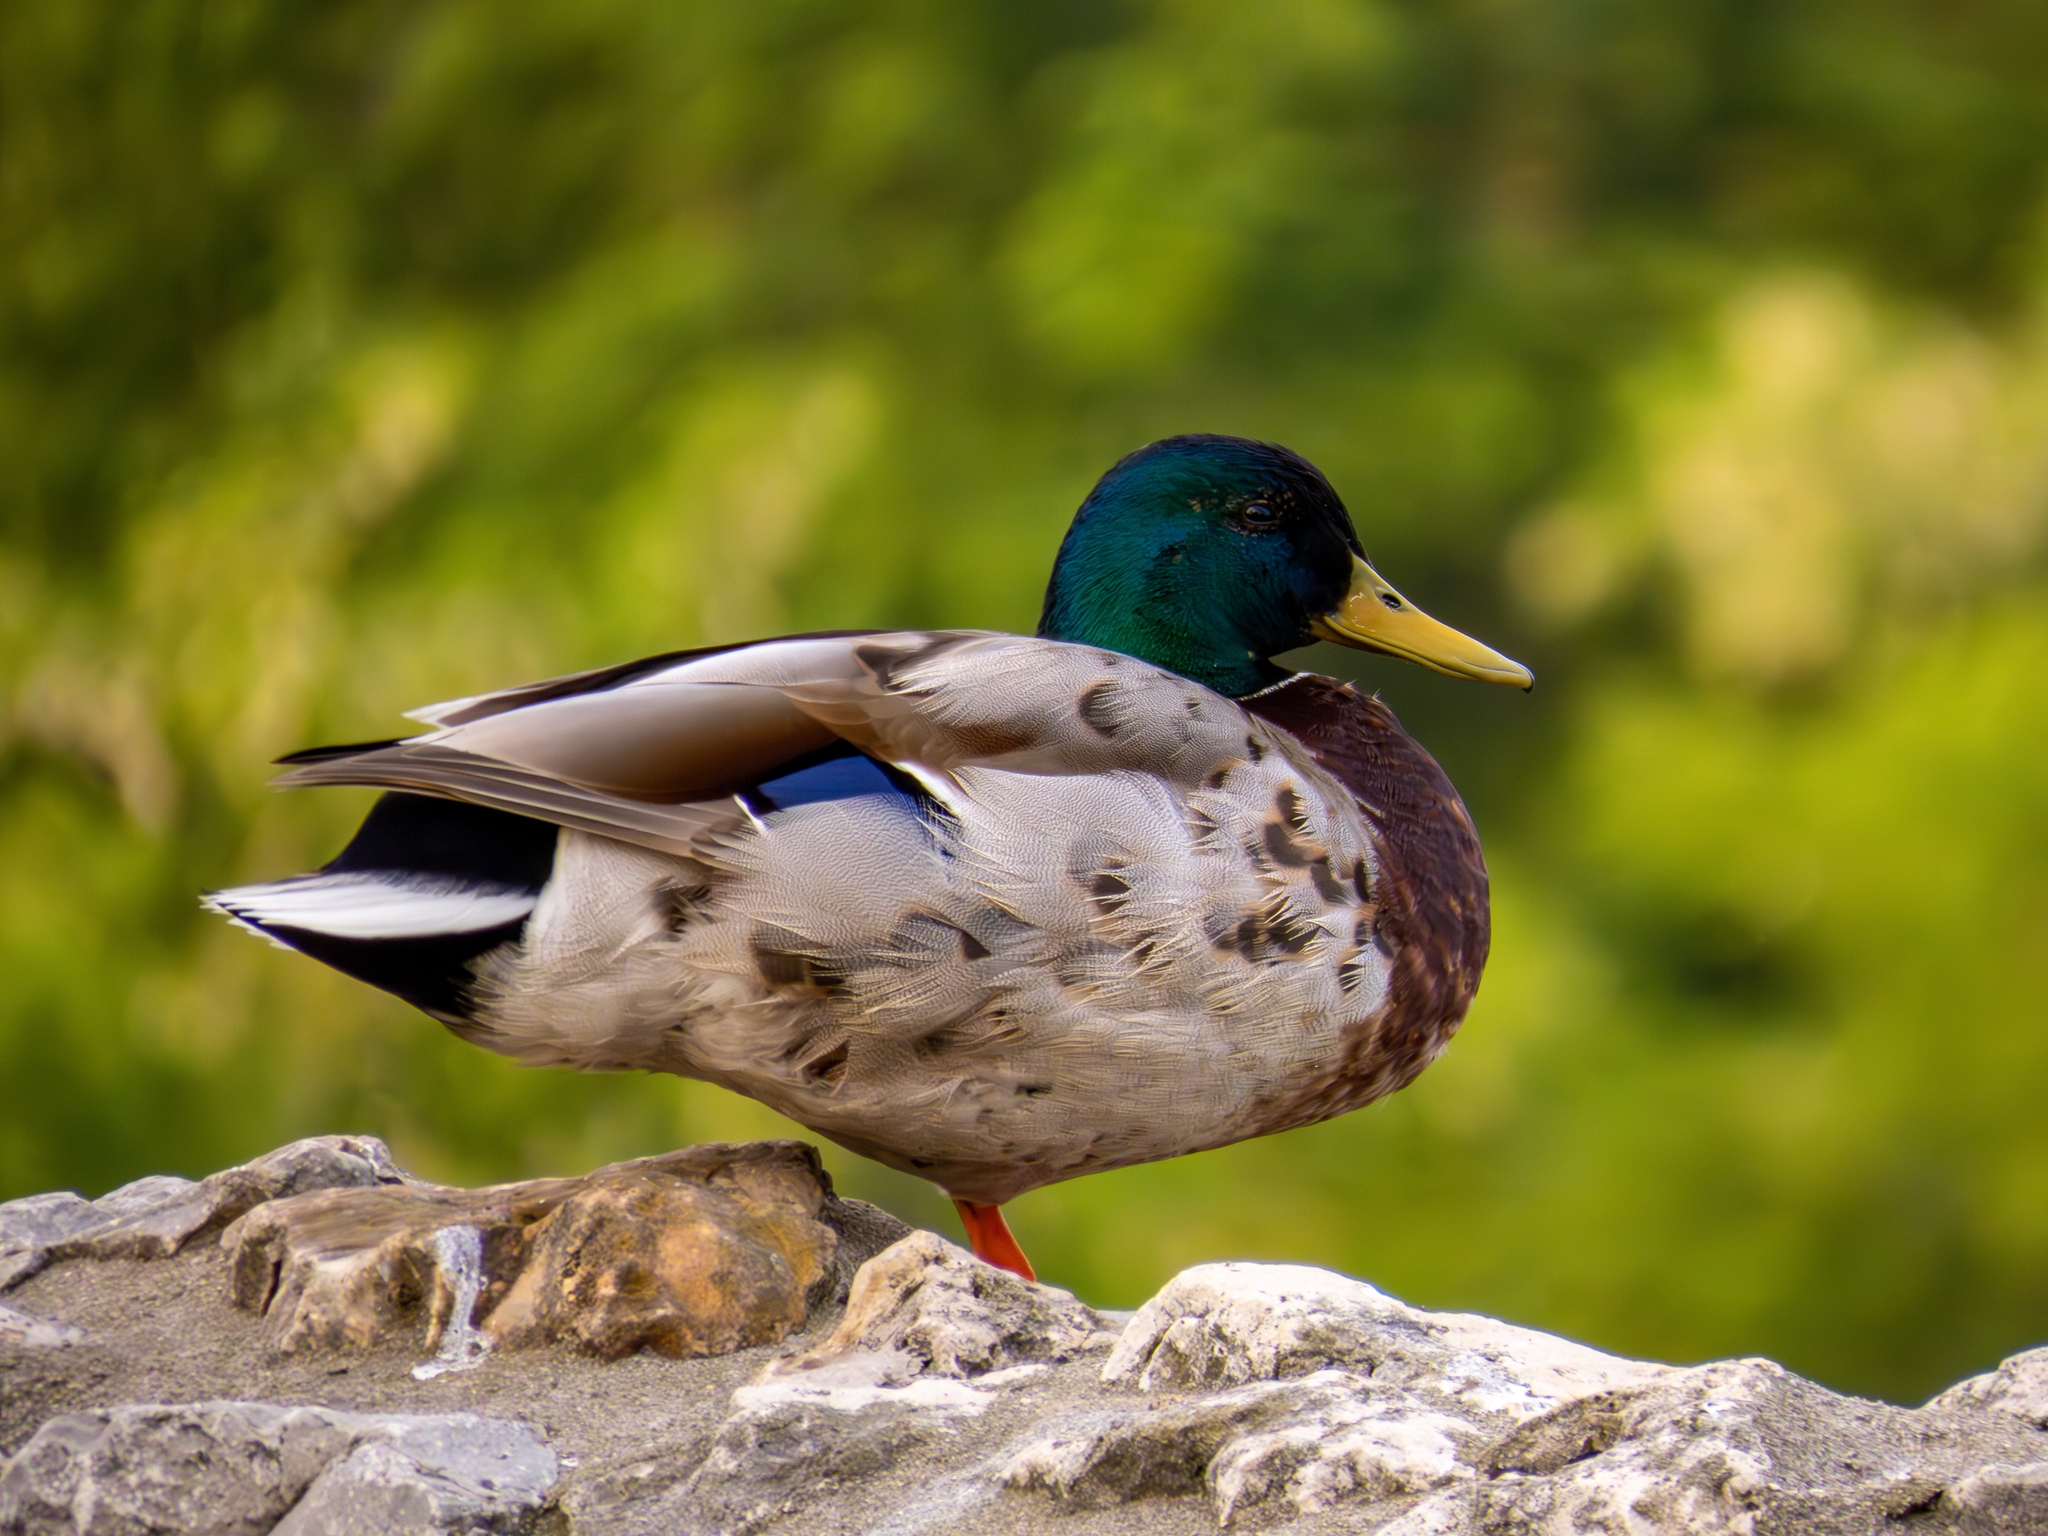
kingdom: Animalia
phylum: Chordata
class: Aves
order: Anseriformes
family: Anatidae
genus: Anas
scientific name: Anas platyrhynchos
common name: Mallard
